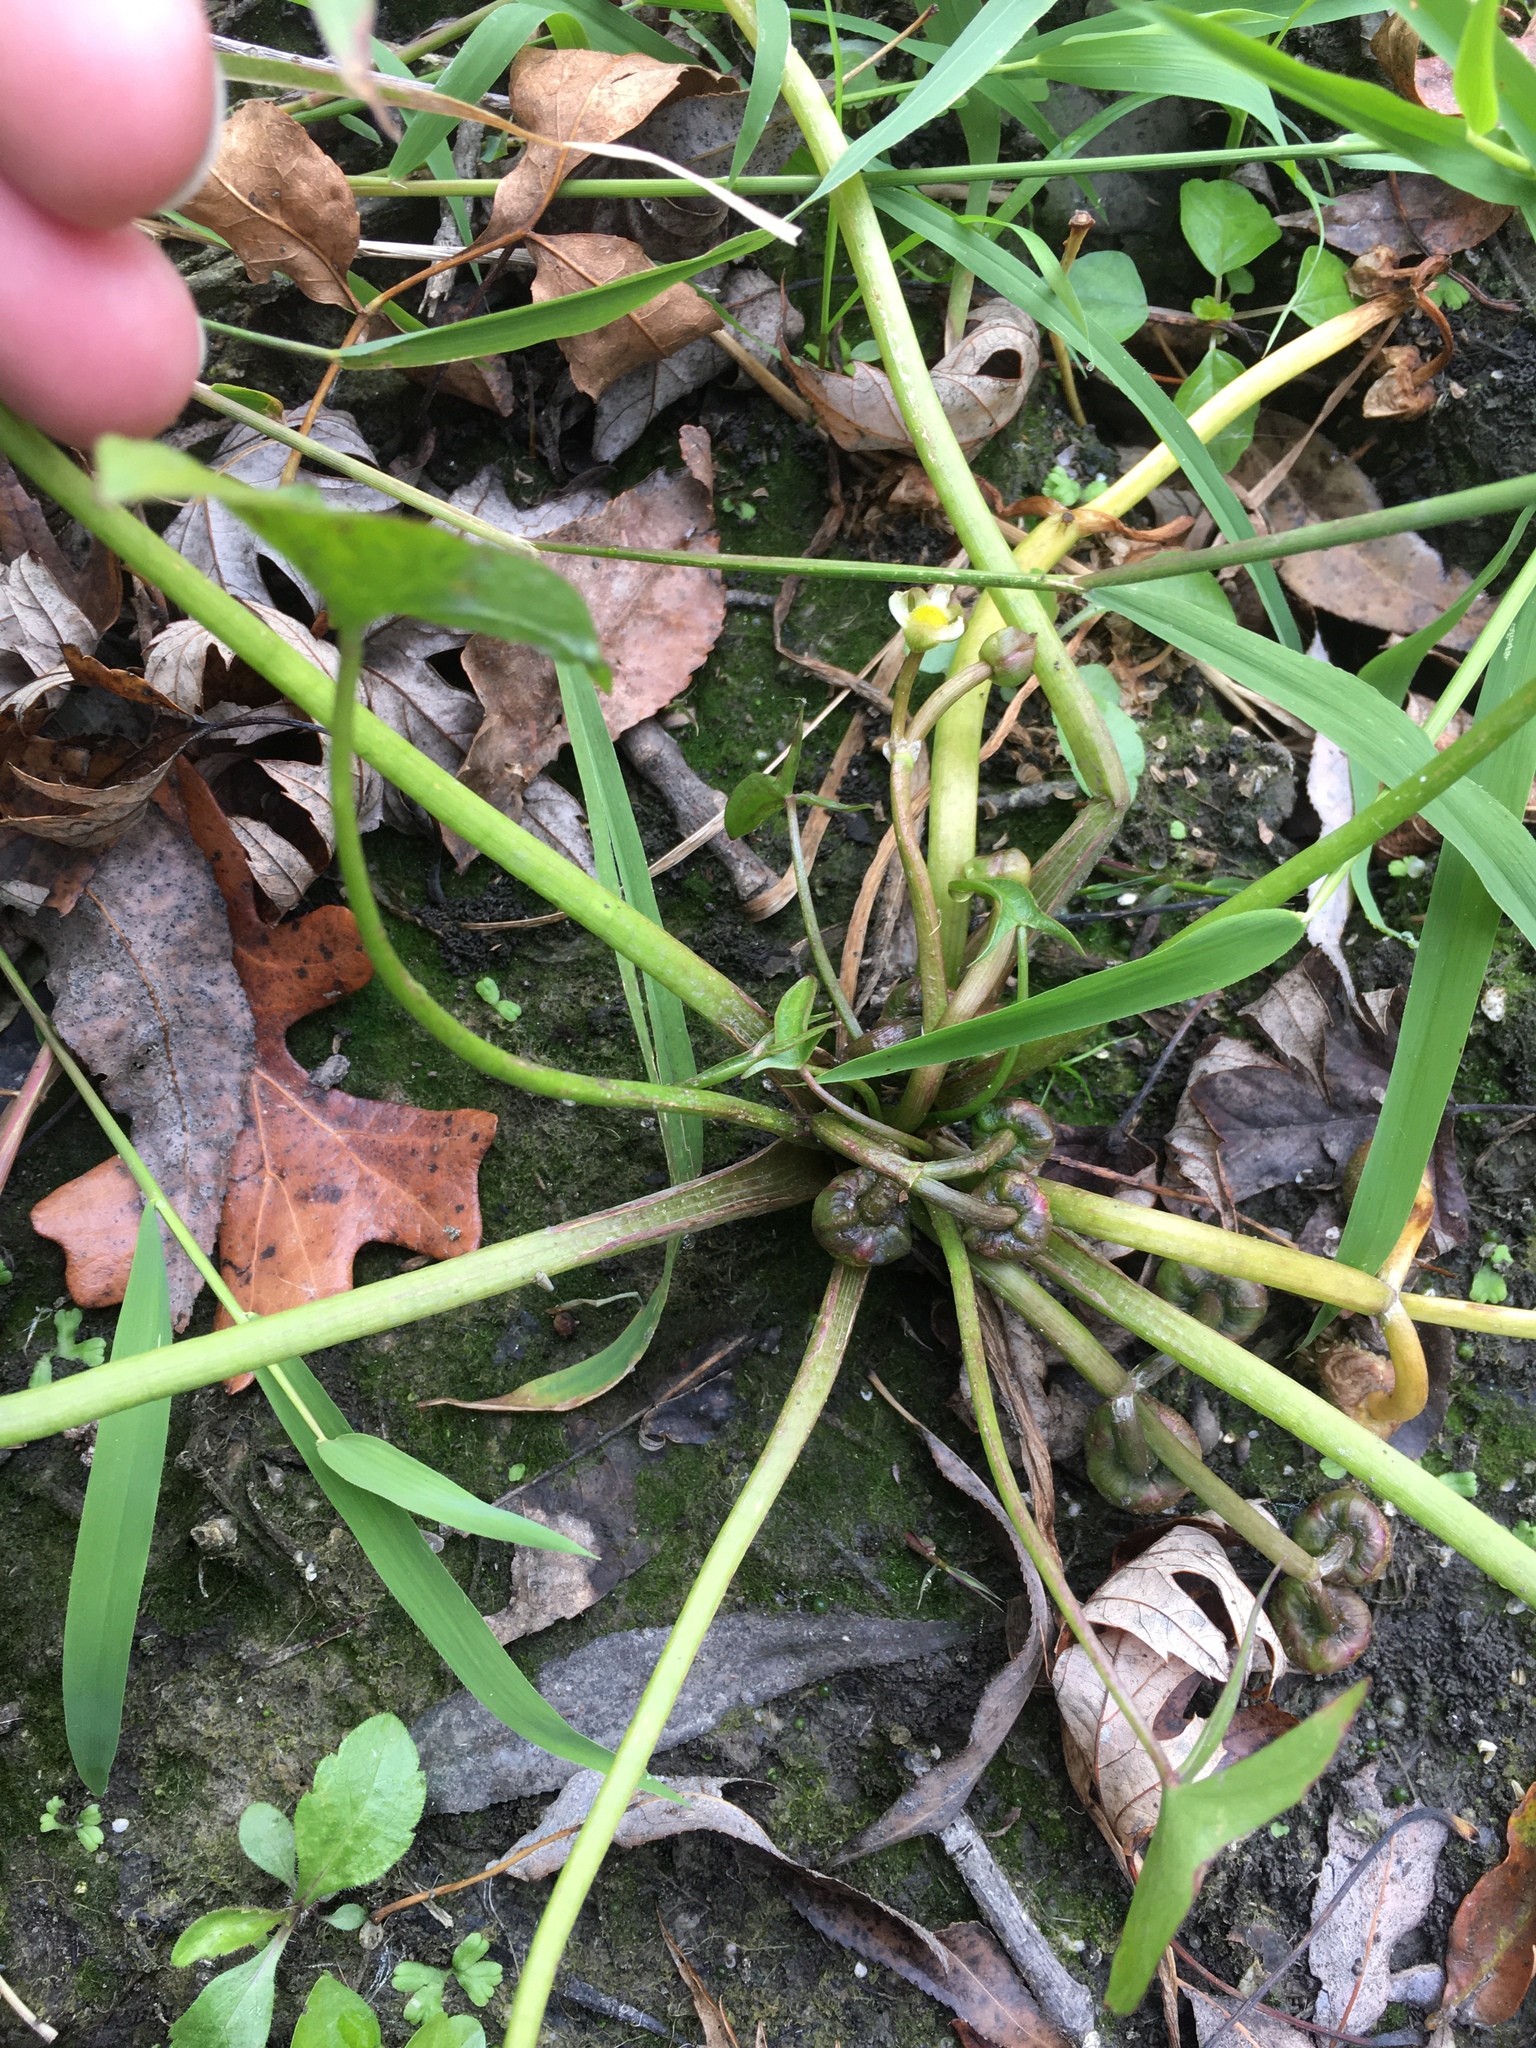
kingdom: Plantae
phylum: Tracheophyta
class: Liliopsida
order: Alismatales
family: Alismataceae
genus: Sagittaria
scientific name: Sagittaria calycina
